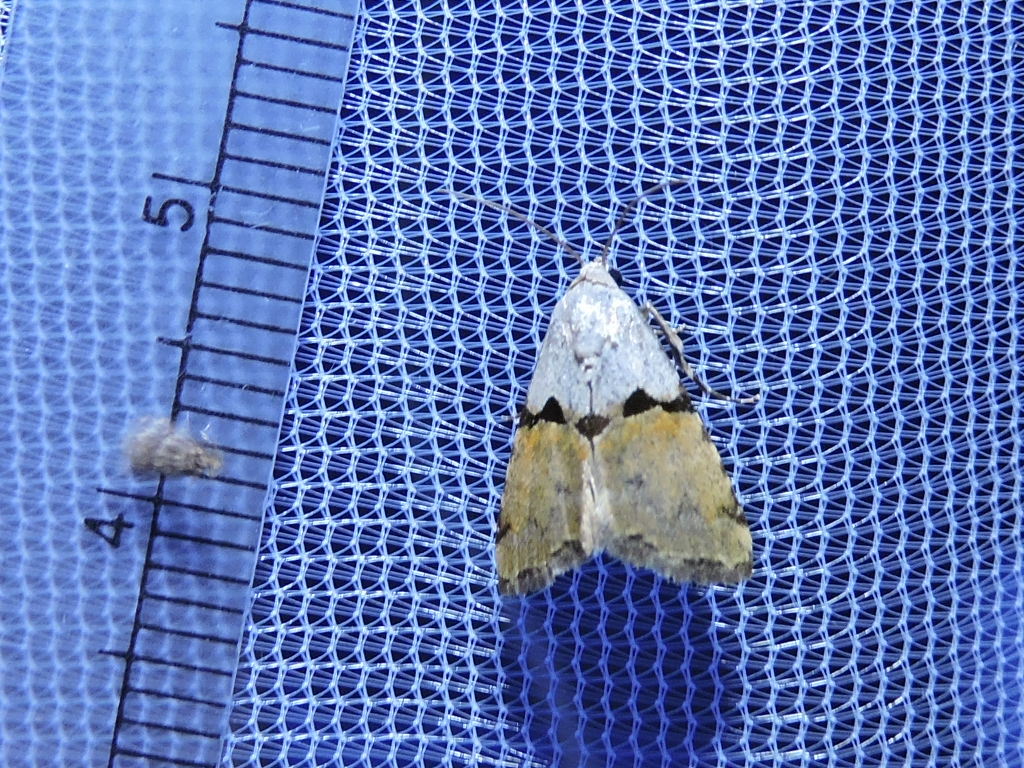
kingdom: Animalia
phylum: Arthropoda
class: Insecta
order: Lepidoptera
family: Noctuidae
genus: Cobubatha
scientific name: Cobubatha orthozona
